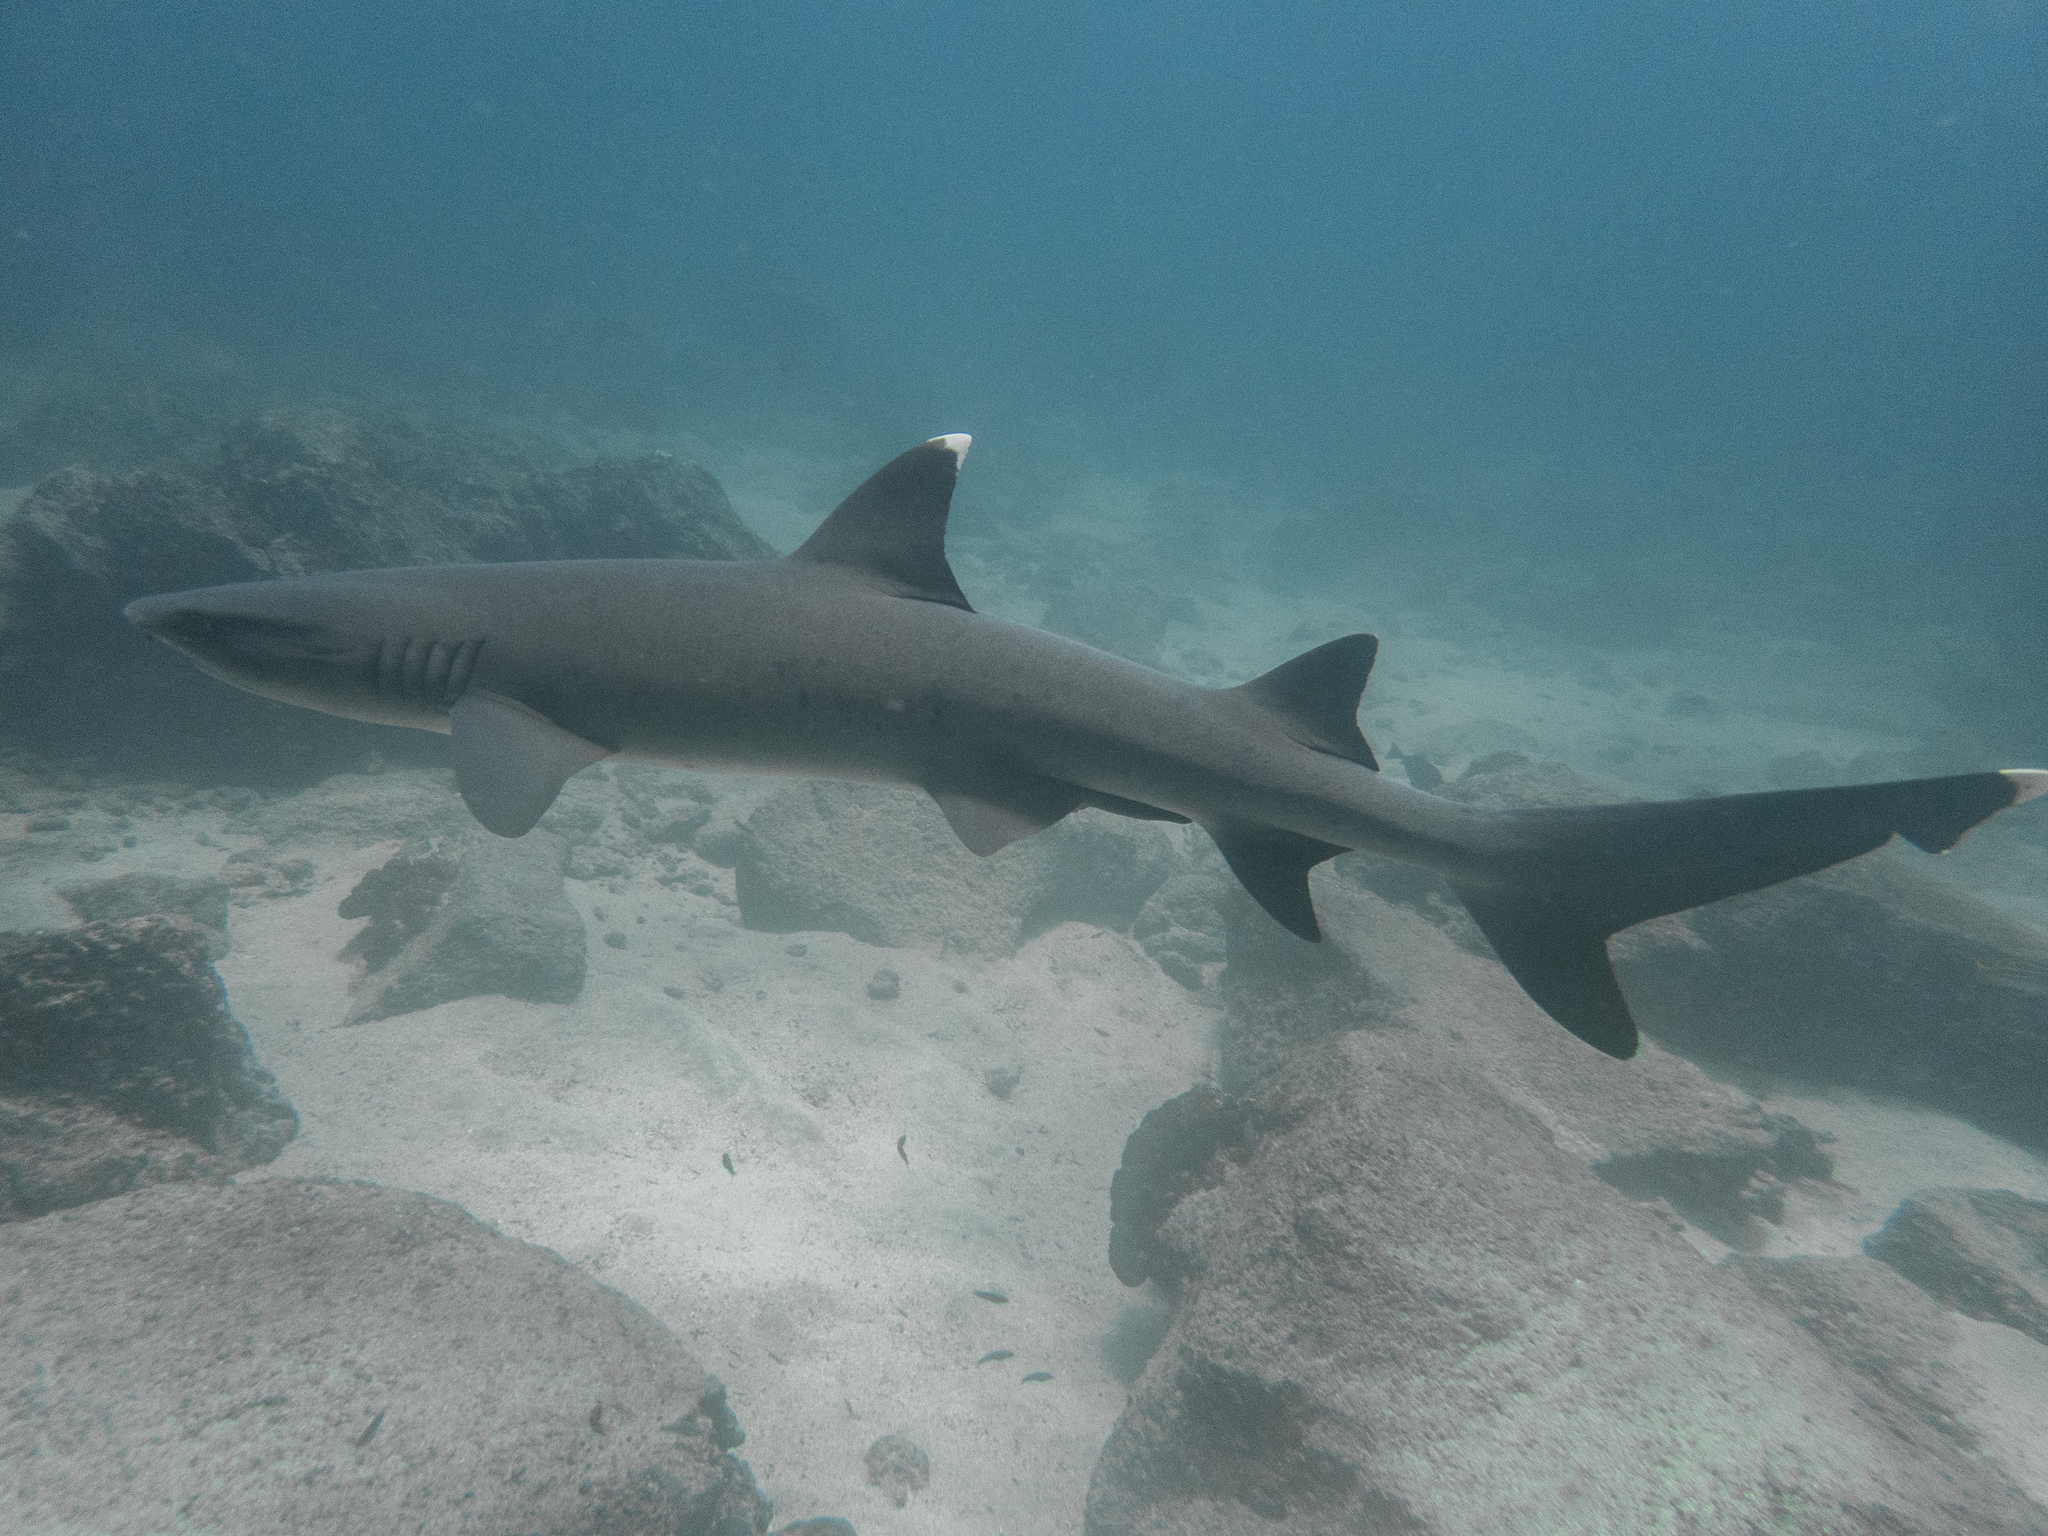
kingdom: Animalia
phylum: Chordata
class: Elasmobranchii
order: Carcharhiniformes
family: Carcharhinidae
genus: Triaenodon
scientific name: Triaenodon obesus
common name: Whitetip reef shark
